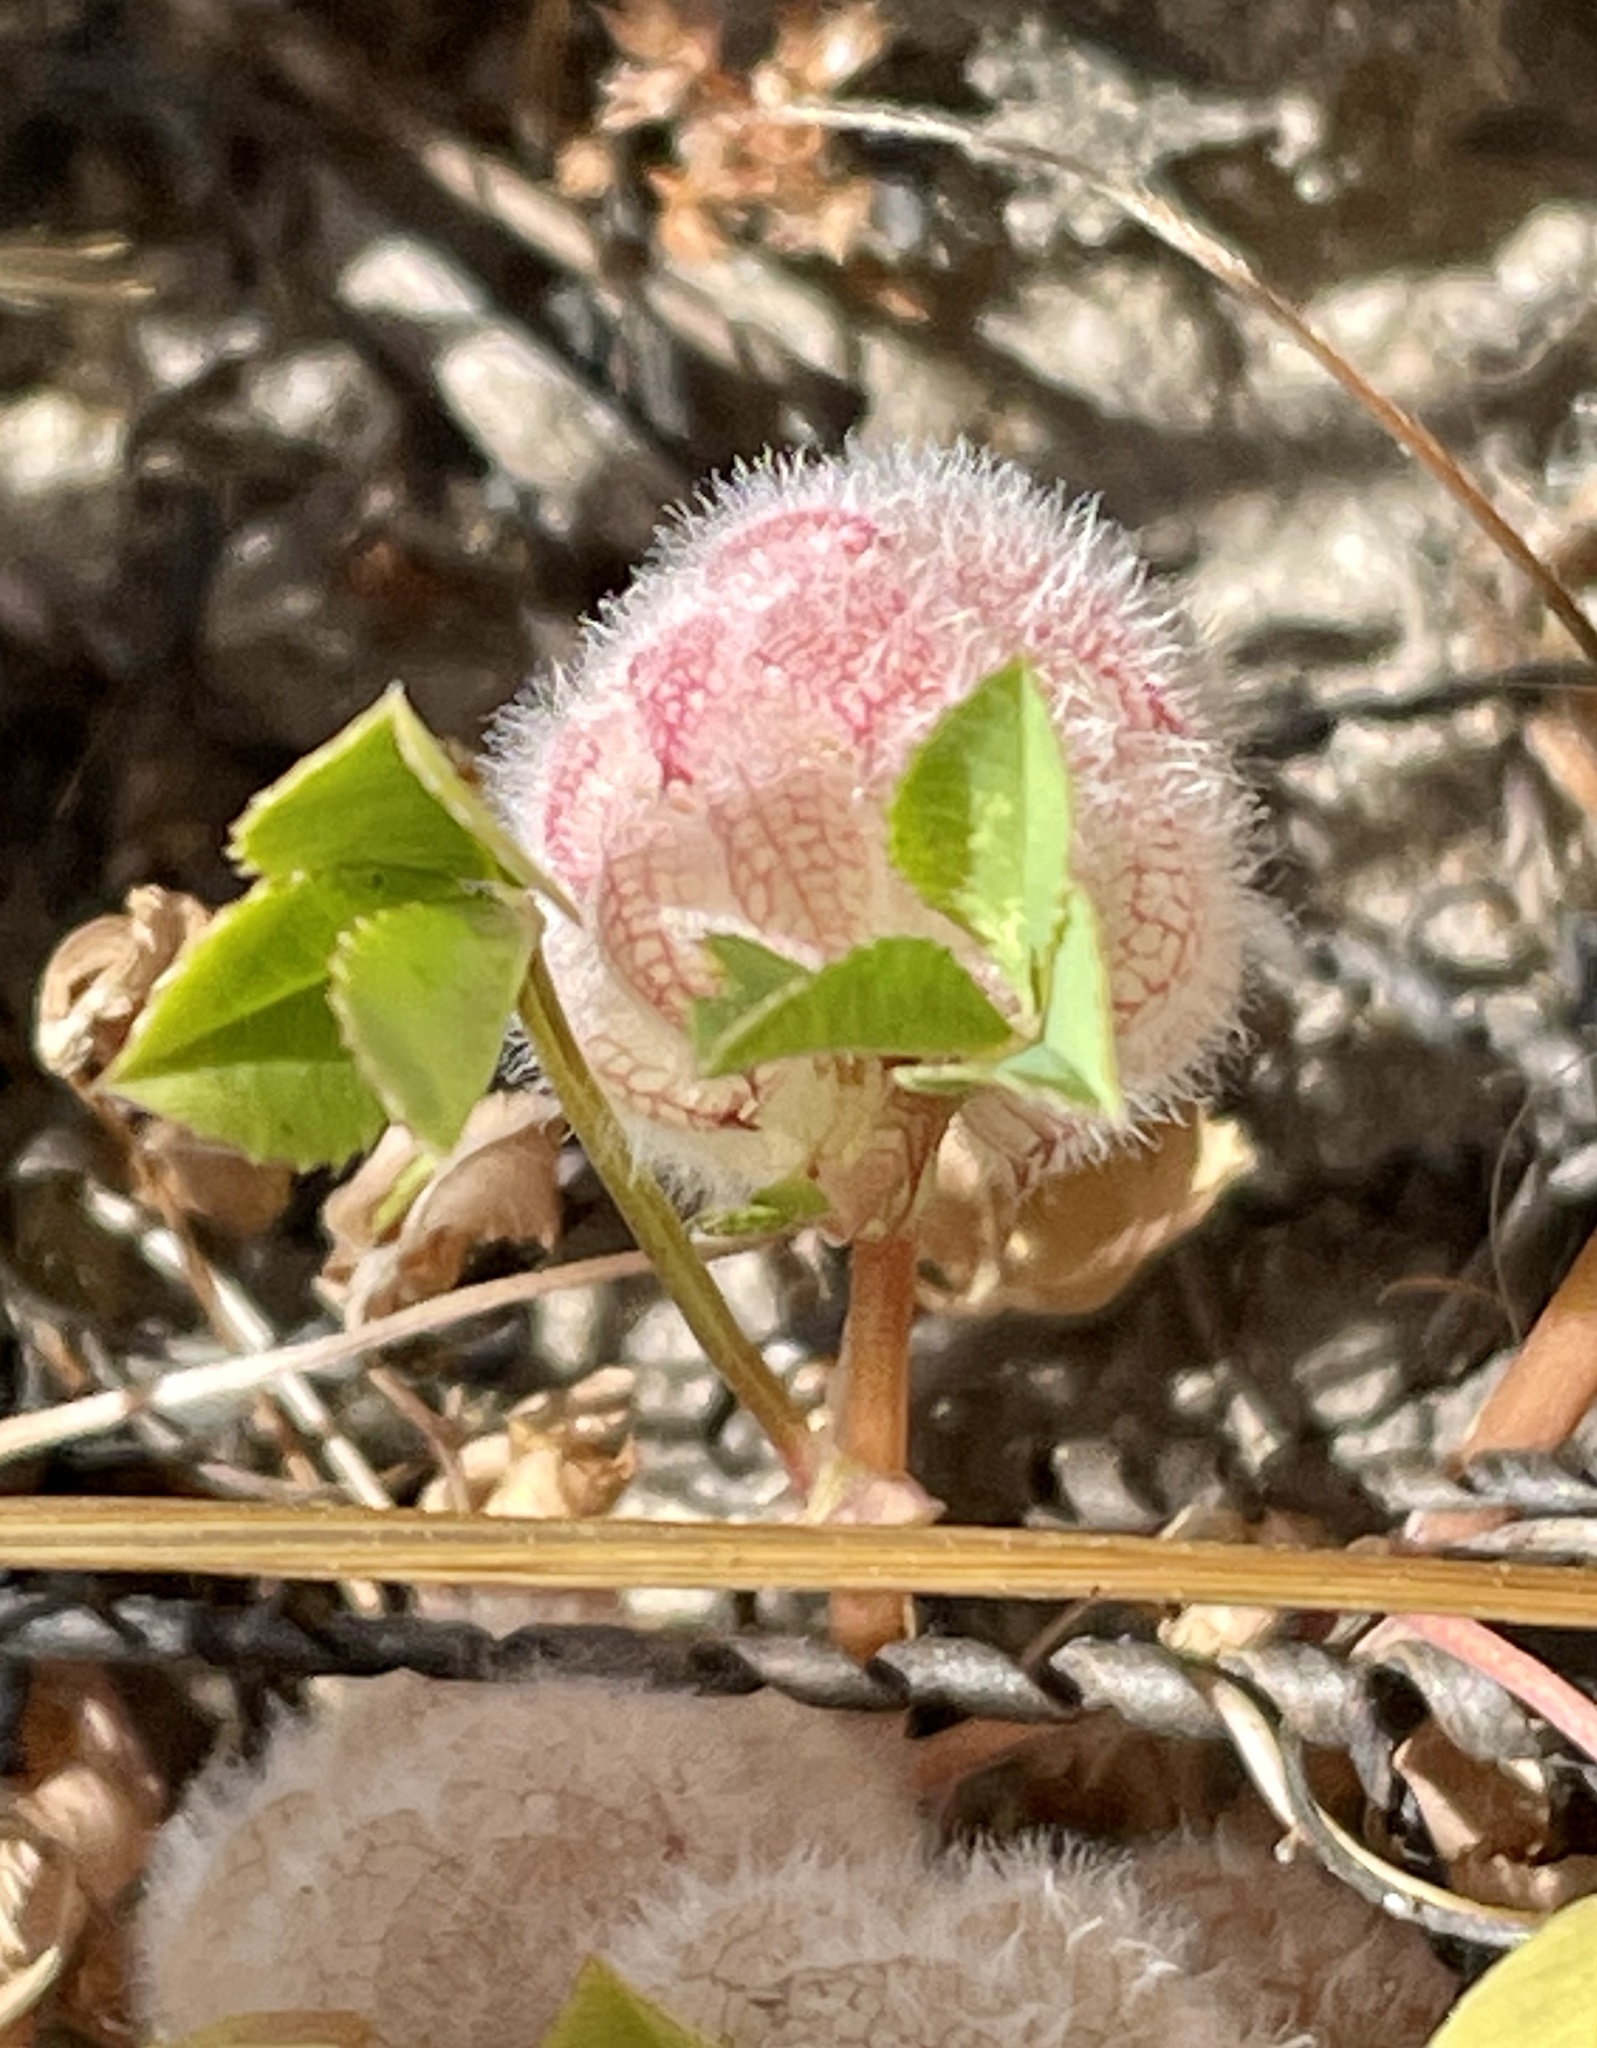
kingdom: Plantae
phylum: Tracheophyta
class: Magnoliopsida
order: Fabales
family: Fabaceae
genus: Trifolium
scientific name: Trifolium tomentosum
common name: Woolly clover
